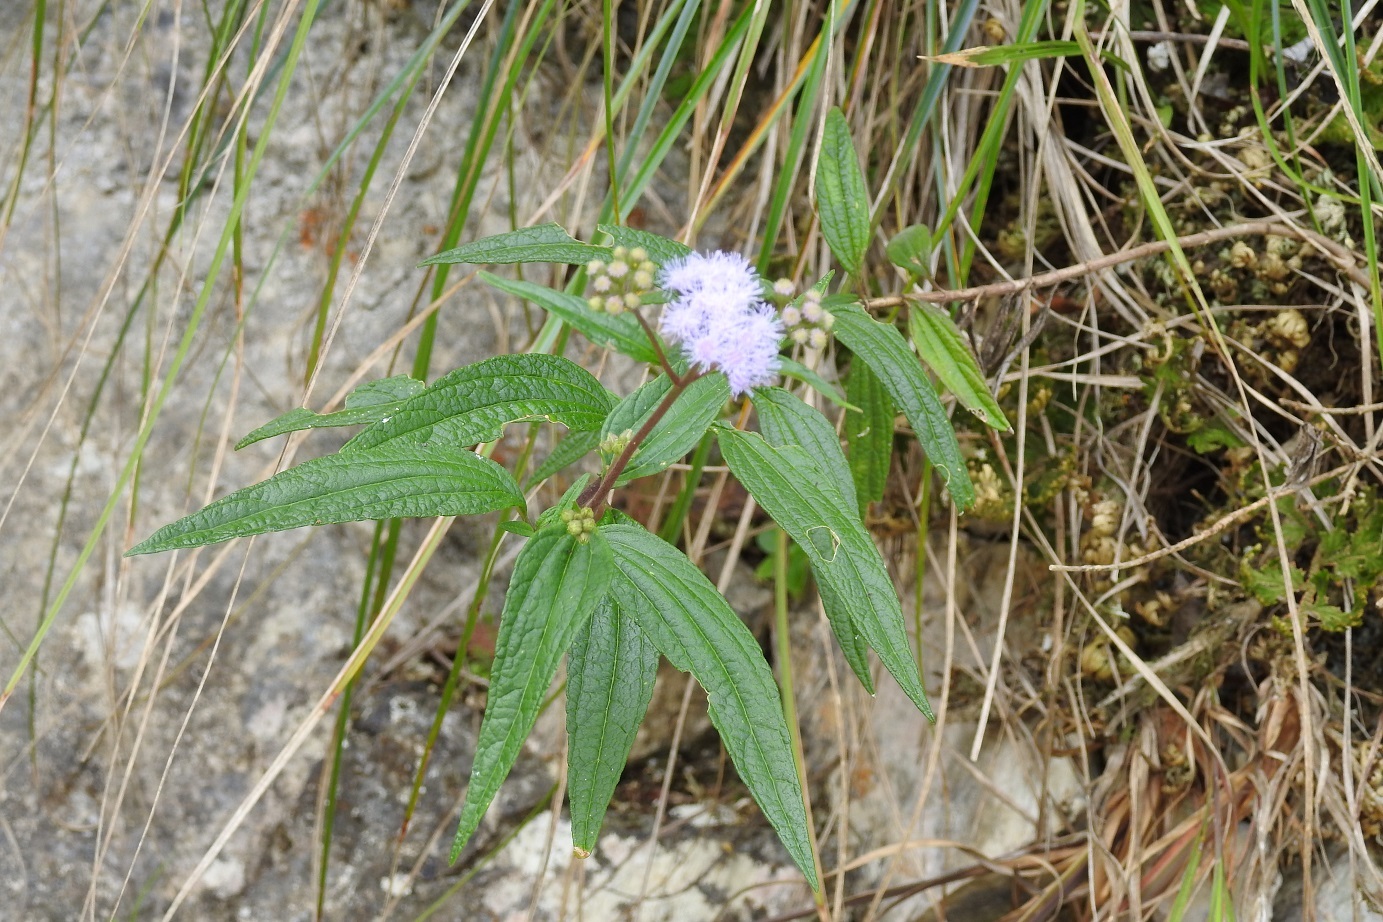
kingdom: Plantae
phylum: Tracheophyta
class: Magnoliopsida
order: Asterales
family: Asteraceae
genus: Ageratum
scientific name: Ageratum paleaceum
